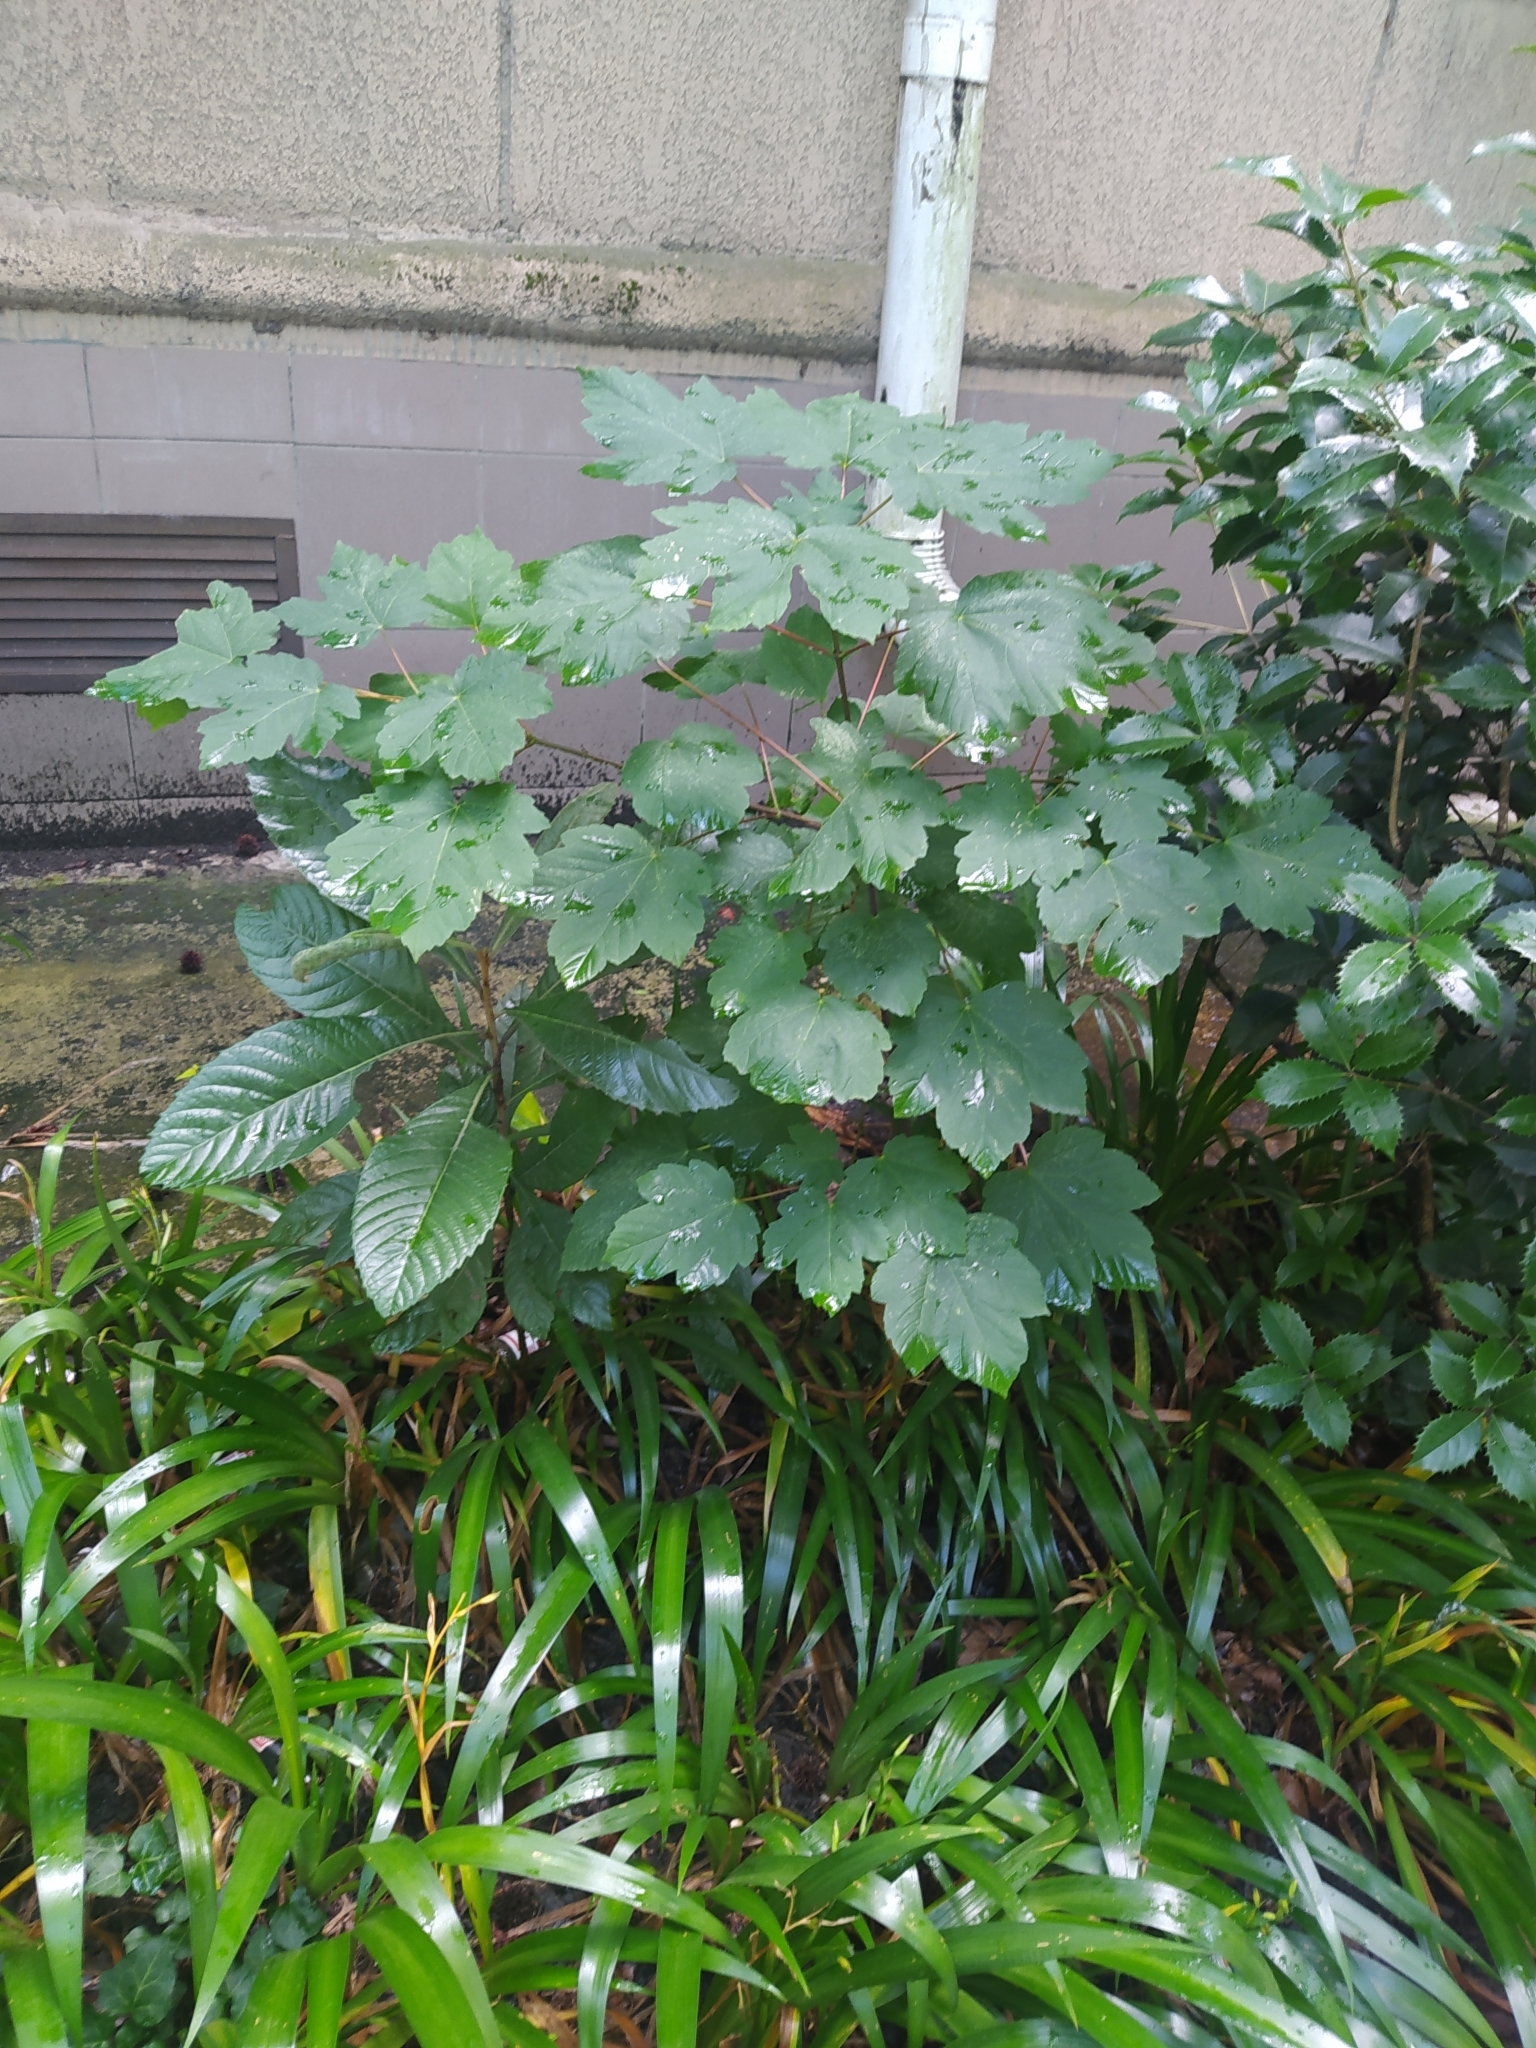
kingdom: Plantae
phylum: Tracheophyta
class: Magnoliopsida
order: Rosales
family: Rosaceae
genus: Rhaphiolepis
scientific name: Rhaphiolepis bibas
